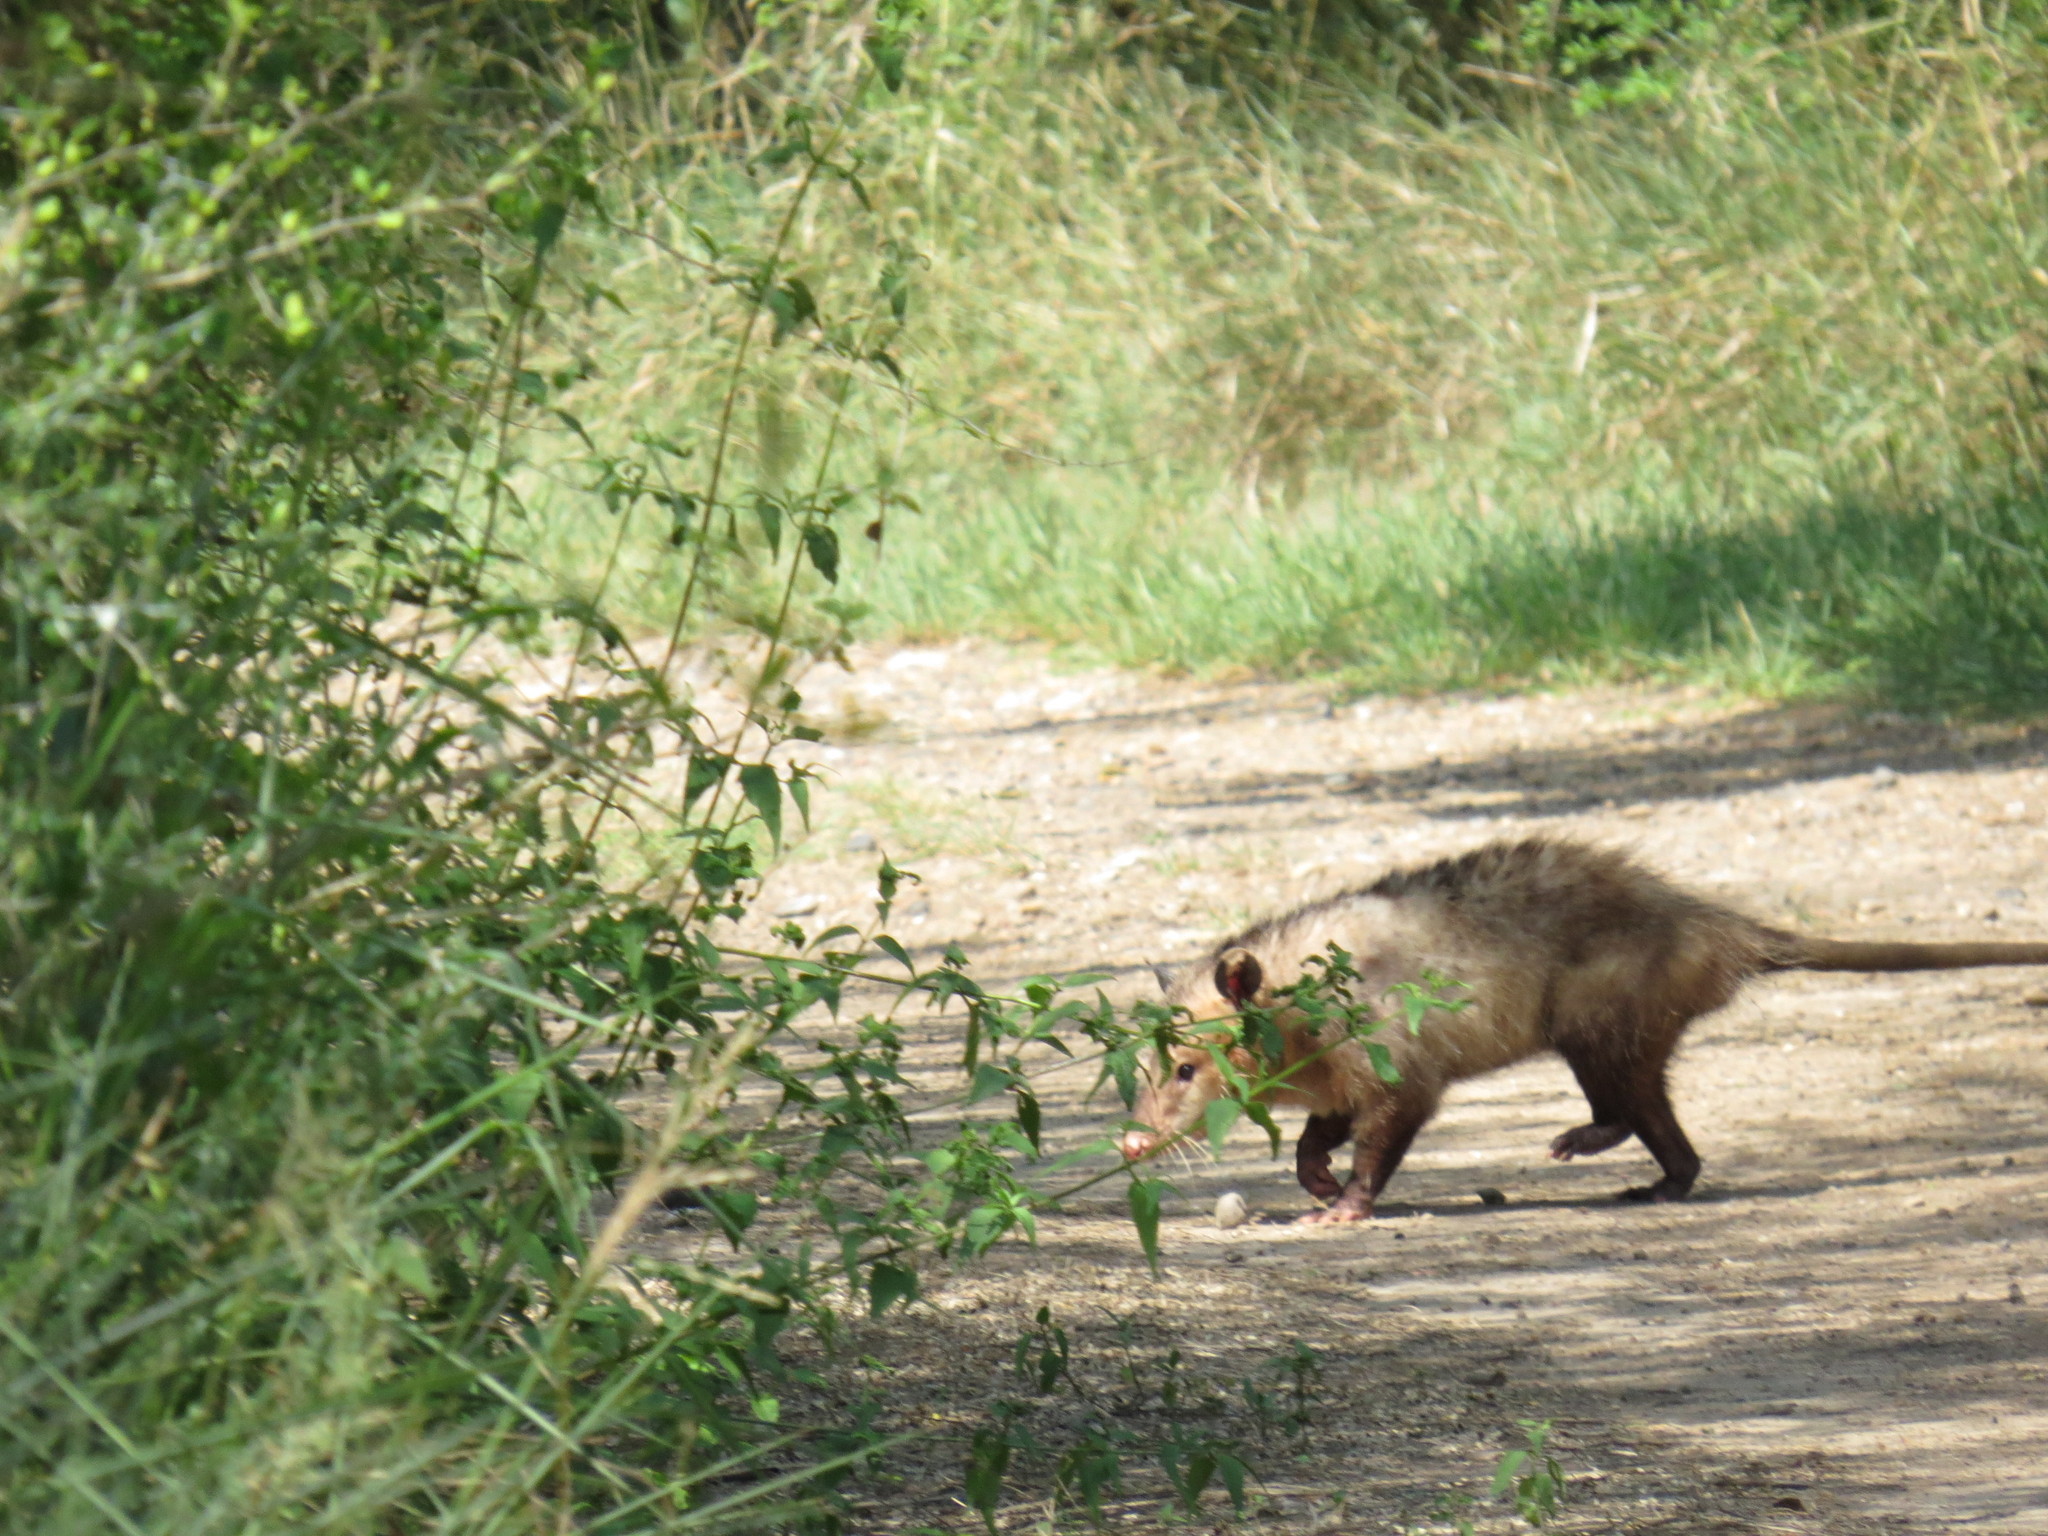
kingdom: Animalia
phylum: Chordata
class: Mammalia
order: Didelphimorphia
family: Didelphidae
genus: Didelphis
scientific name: Didelphis virginiana
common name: Virginia opossum
